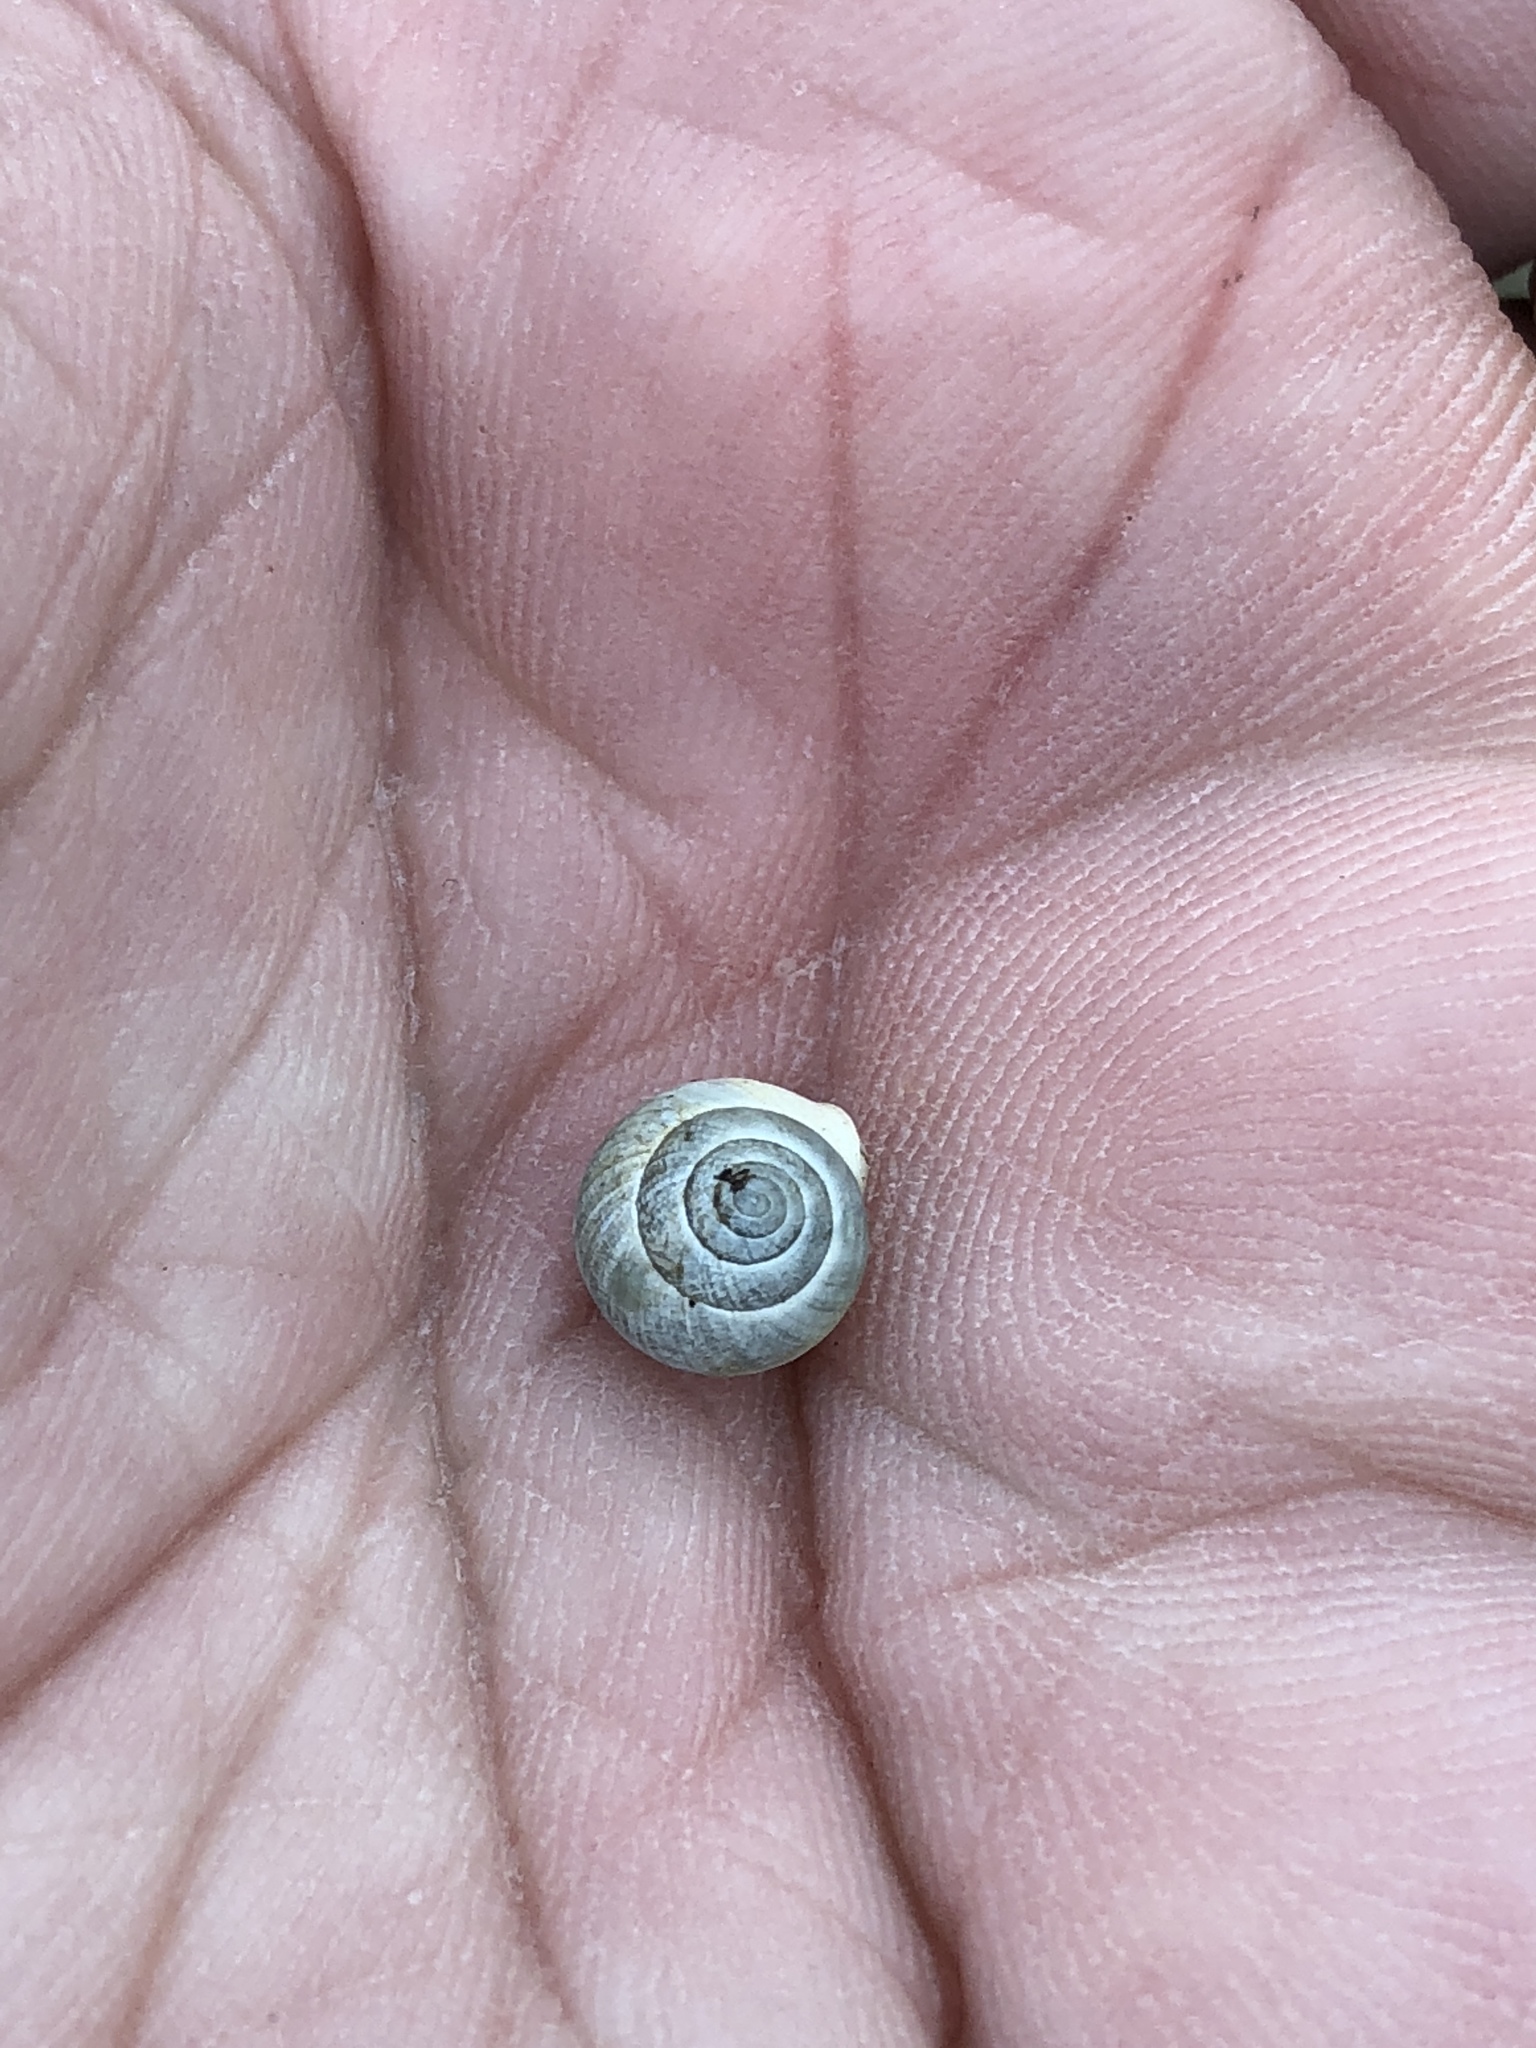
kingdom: Animalia
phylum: Mollusca
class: Gastropoda
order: Cycloneritida
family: Helicinidae
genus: Helicina
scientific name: Helicina orbiculata
